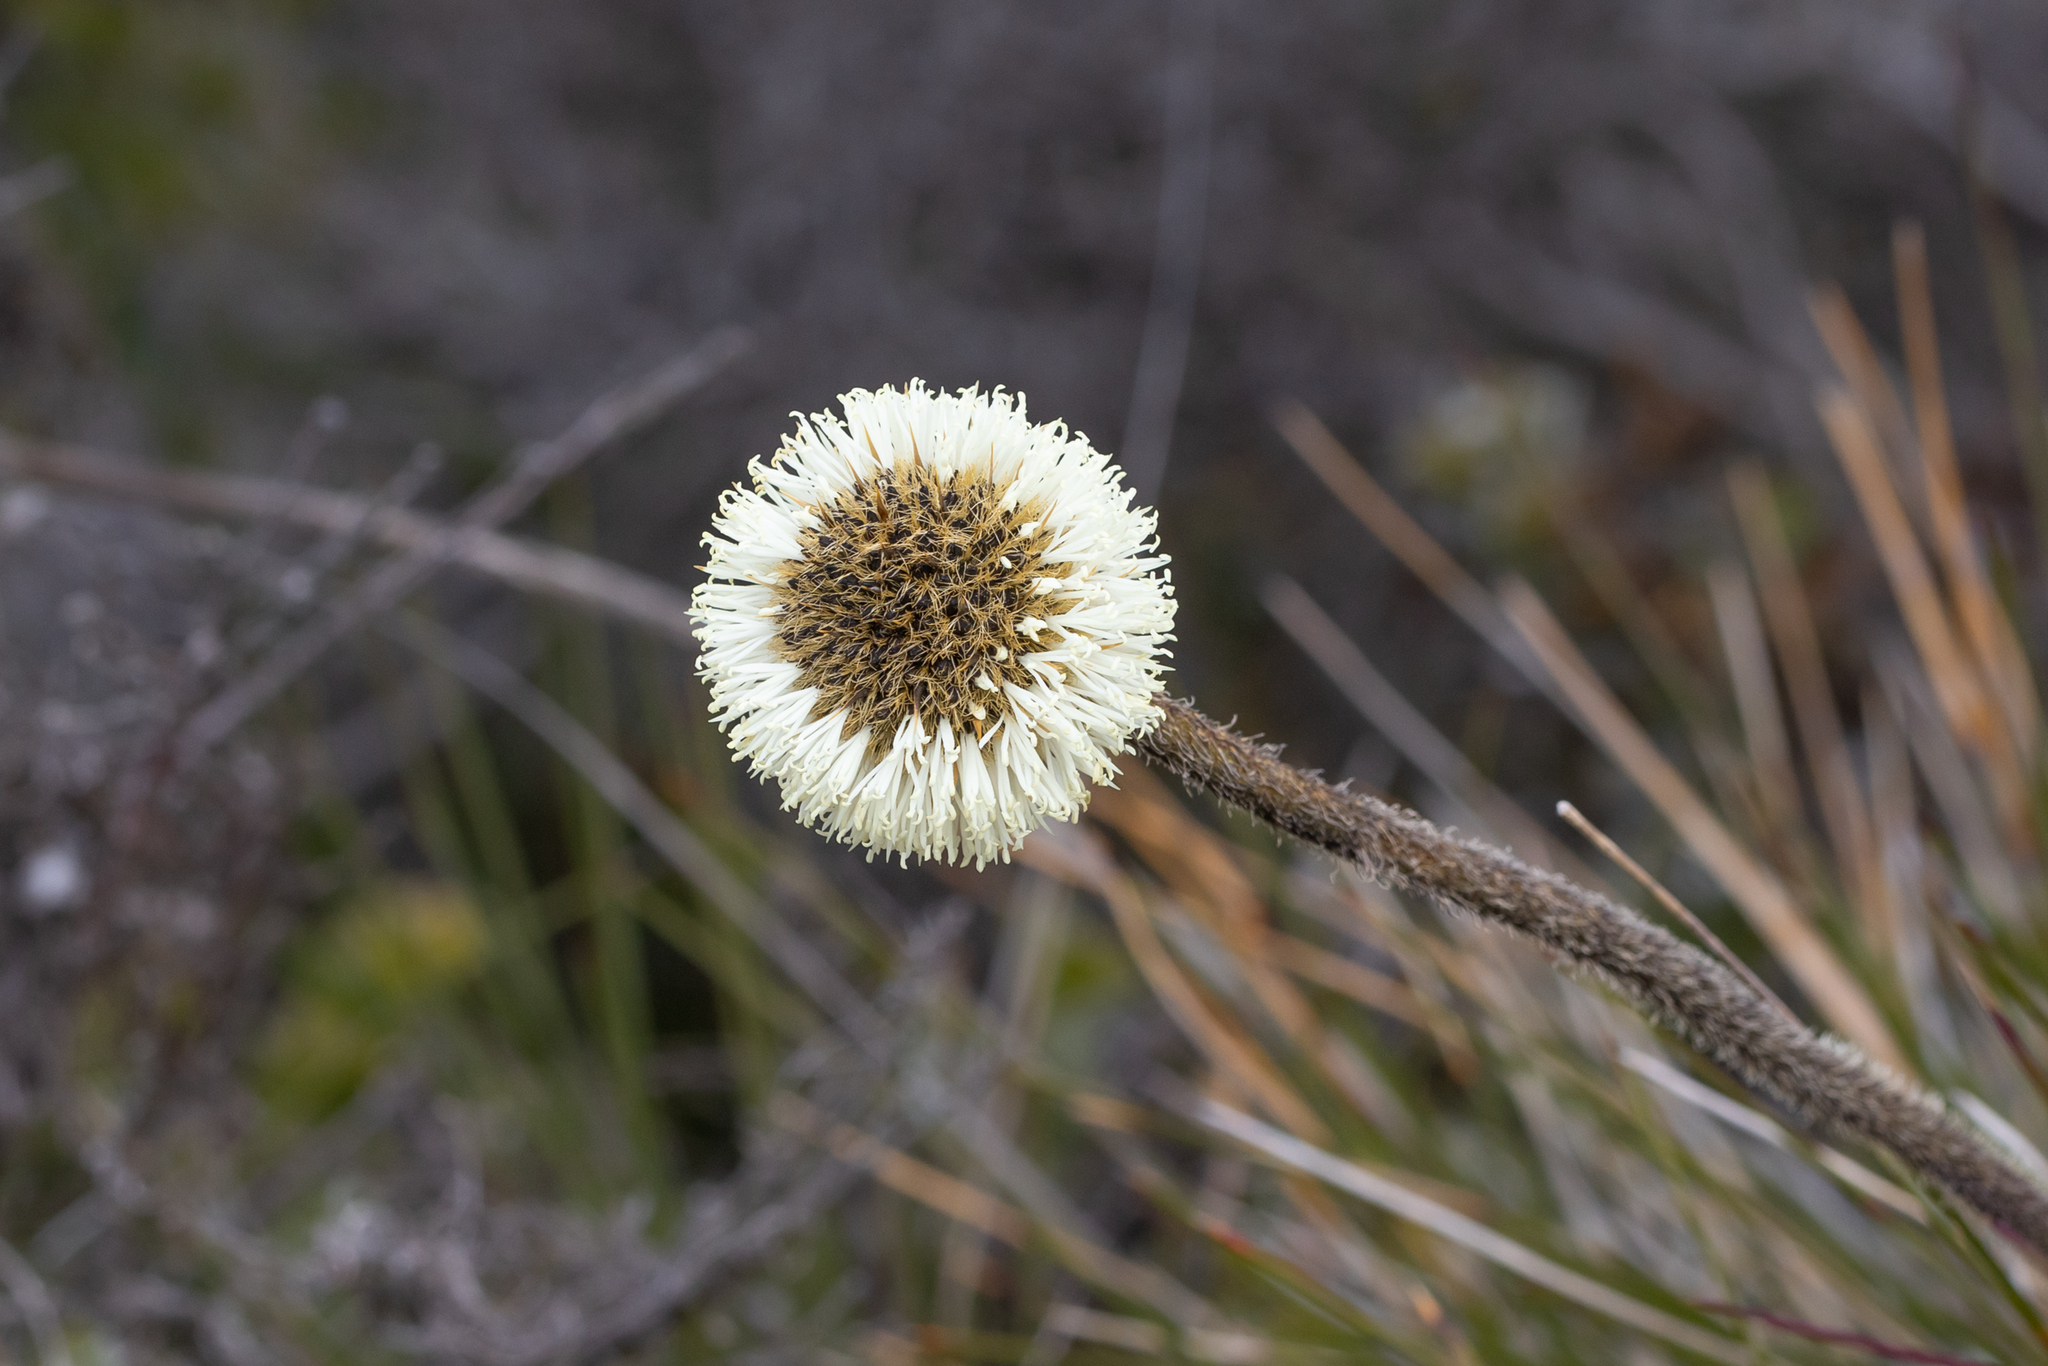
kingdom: Plantae
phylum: Tracheophyta
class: Liliopsida
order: Arecales
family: Dasypogonaceae
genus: Dasypogon
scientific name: Dasypogon bromeliifolius
